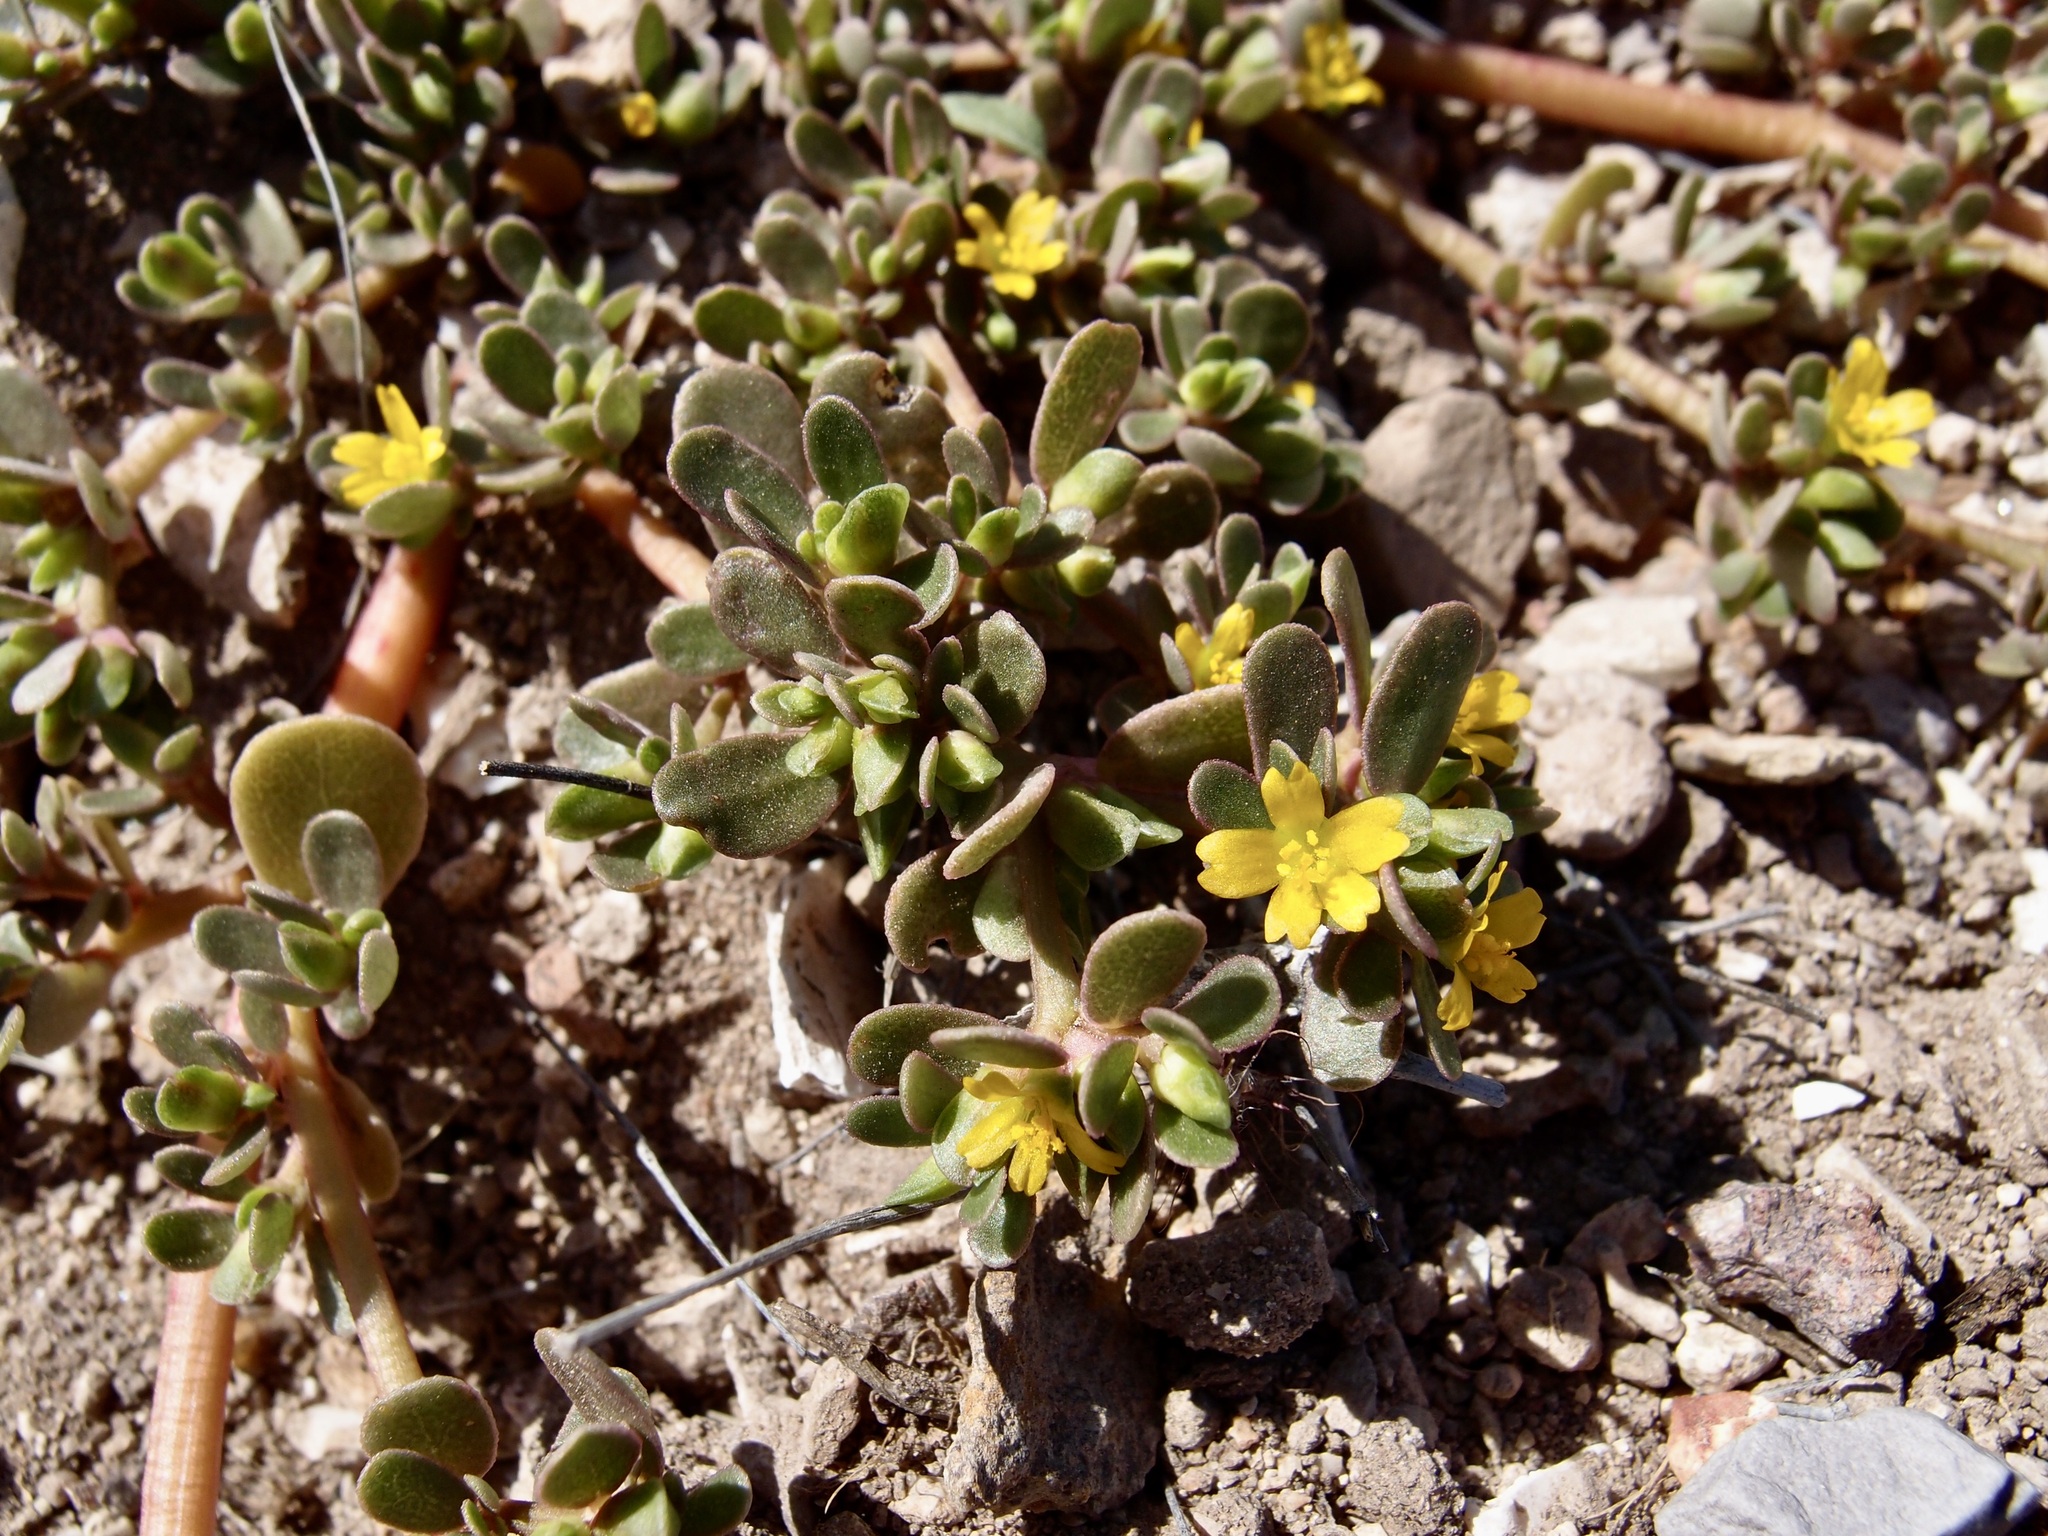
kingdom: Plantae
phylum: Tracheophyta
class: Magnoliopsida
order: Caryophyllales
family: Portulacaceae
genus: Portulaca
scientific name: Portulaca oleracea
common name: Common purslane
